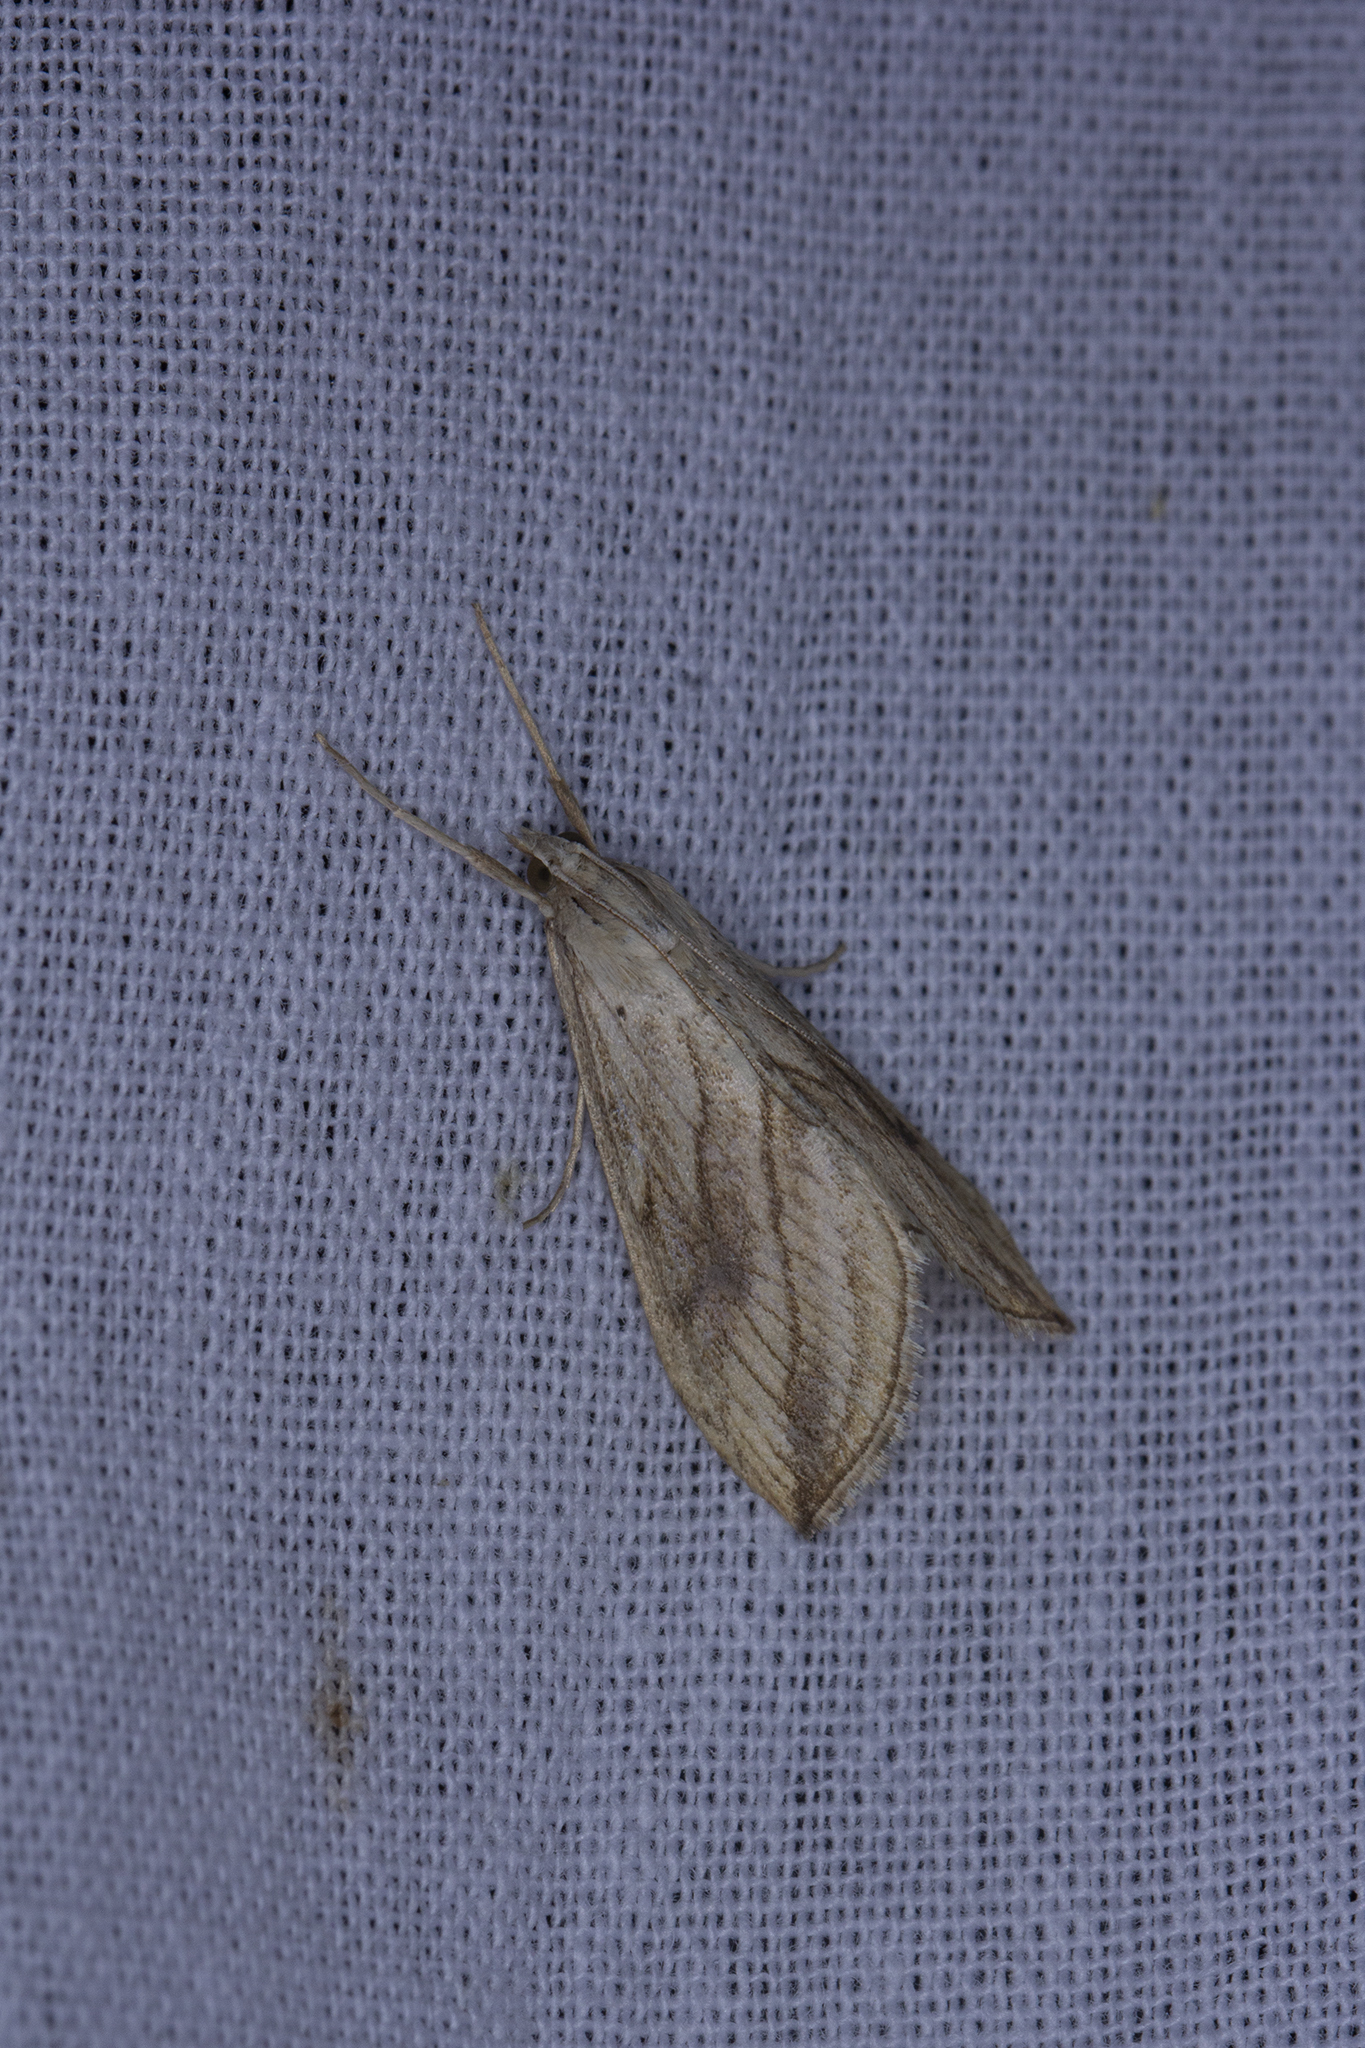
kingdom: Animalia
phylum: Arthropoda
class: Insecta
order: Lepidoptera
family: Crambidae
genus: Evergestis
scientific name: Evergestis forficalis
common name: Garden pebble
